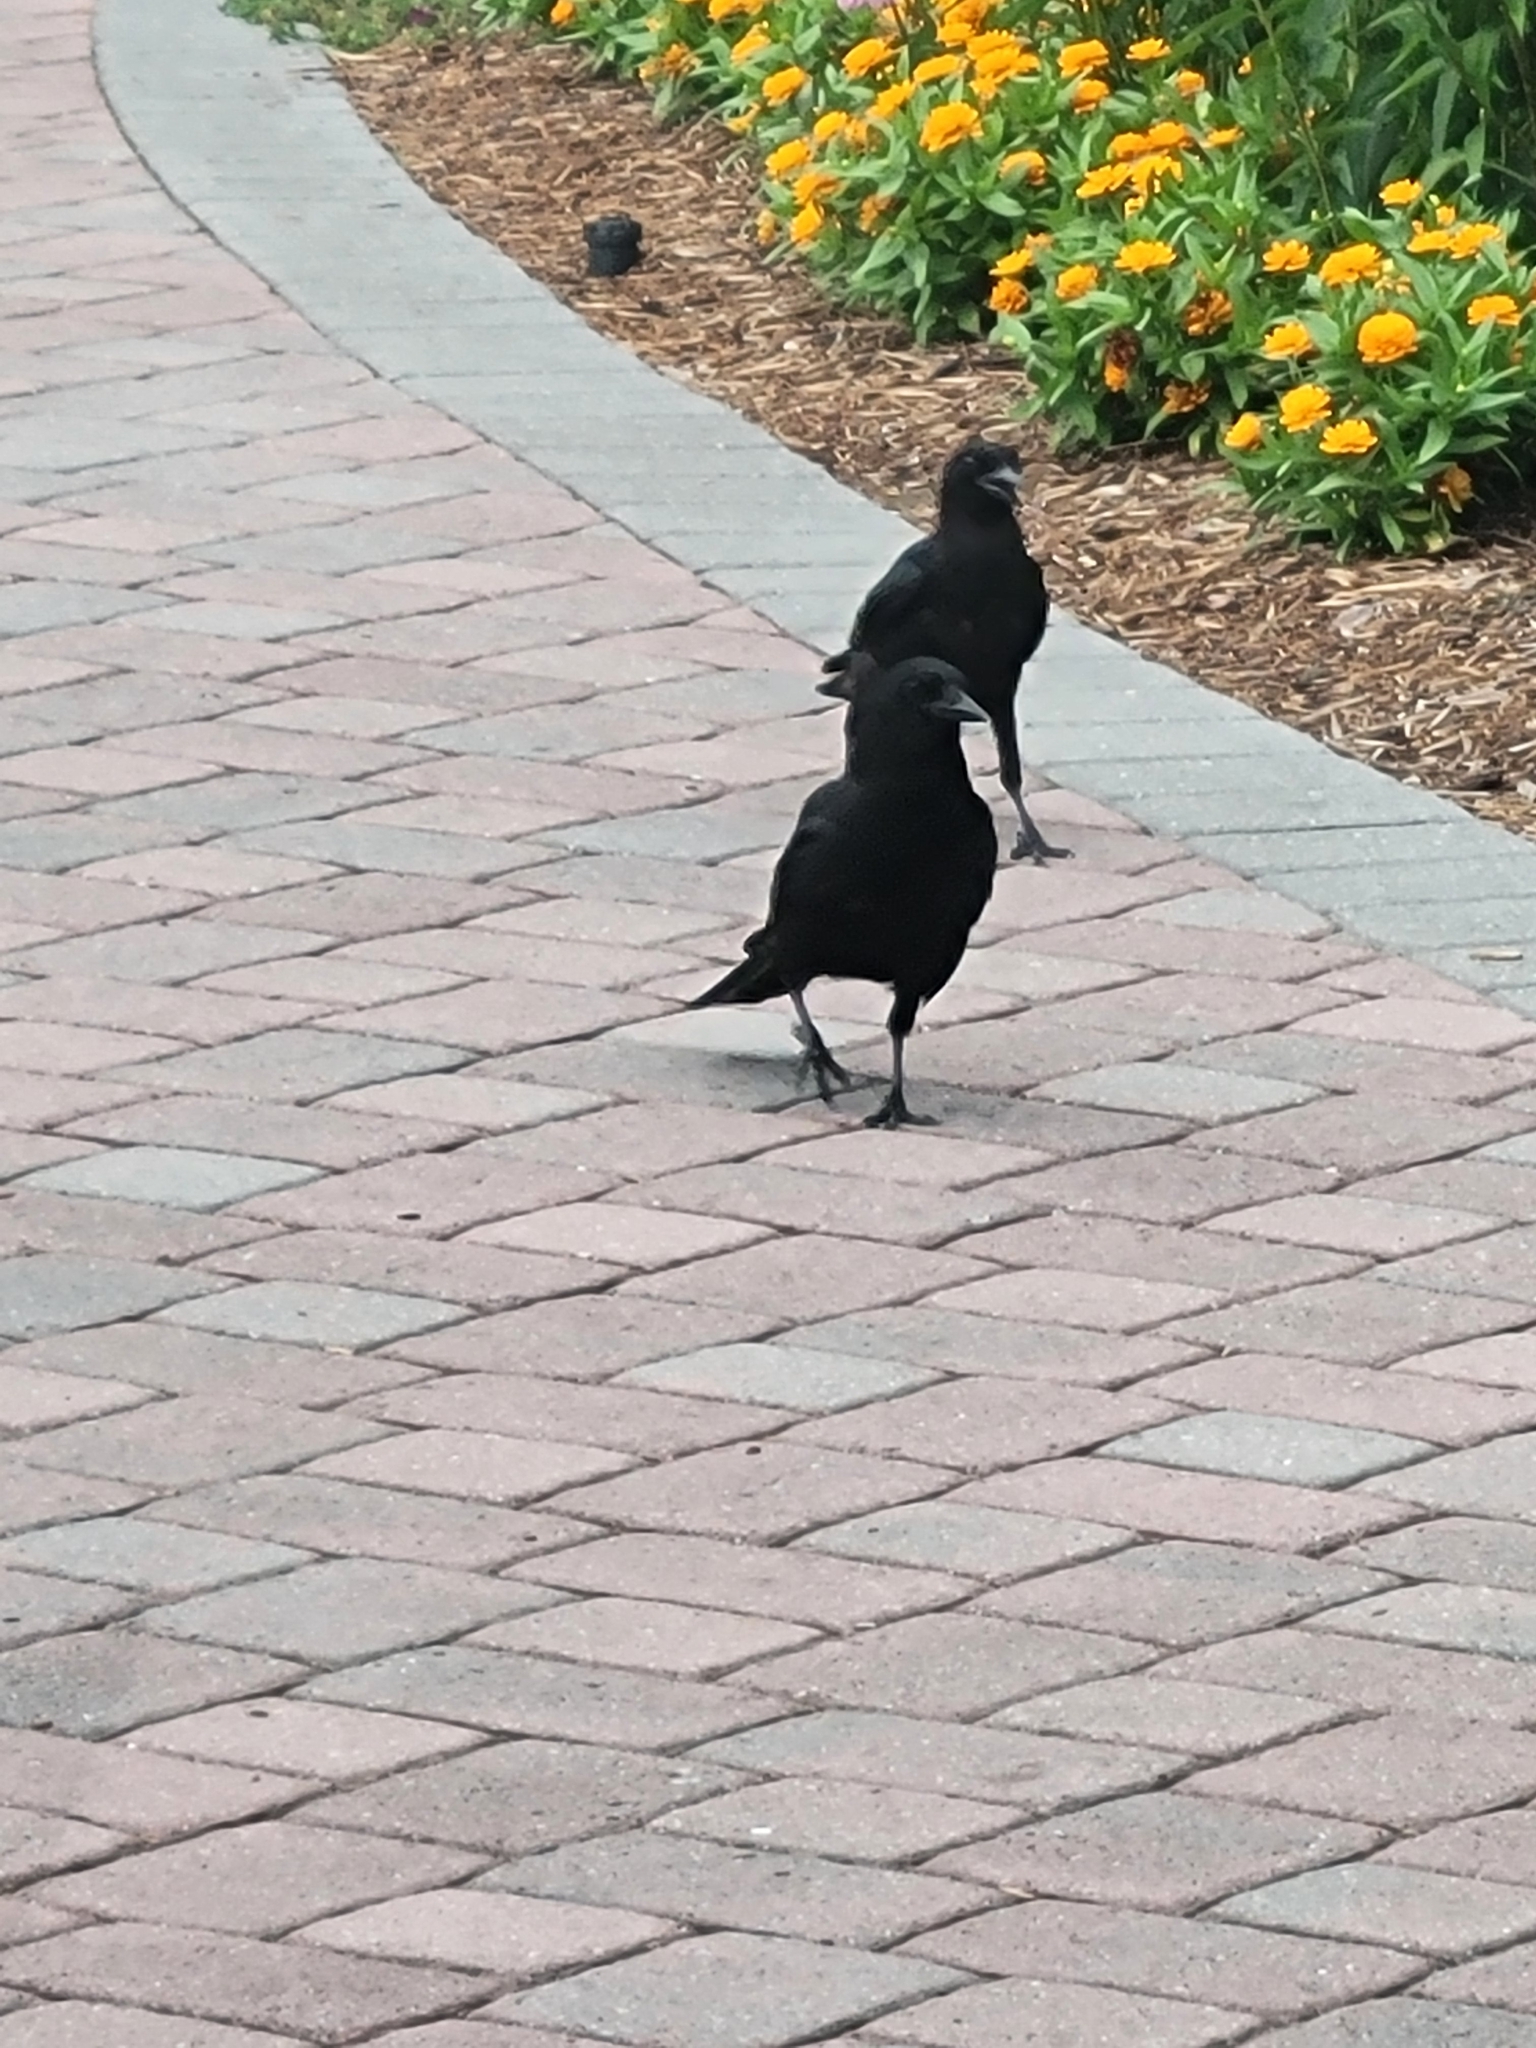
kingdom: Animalia
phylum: Chordata
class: Aves
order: Passeriformes
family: Corvidae
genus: Corvus
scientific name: Corvus brachyrhynchos
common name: American crow
